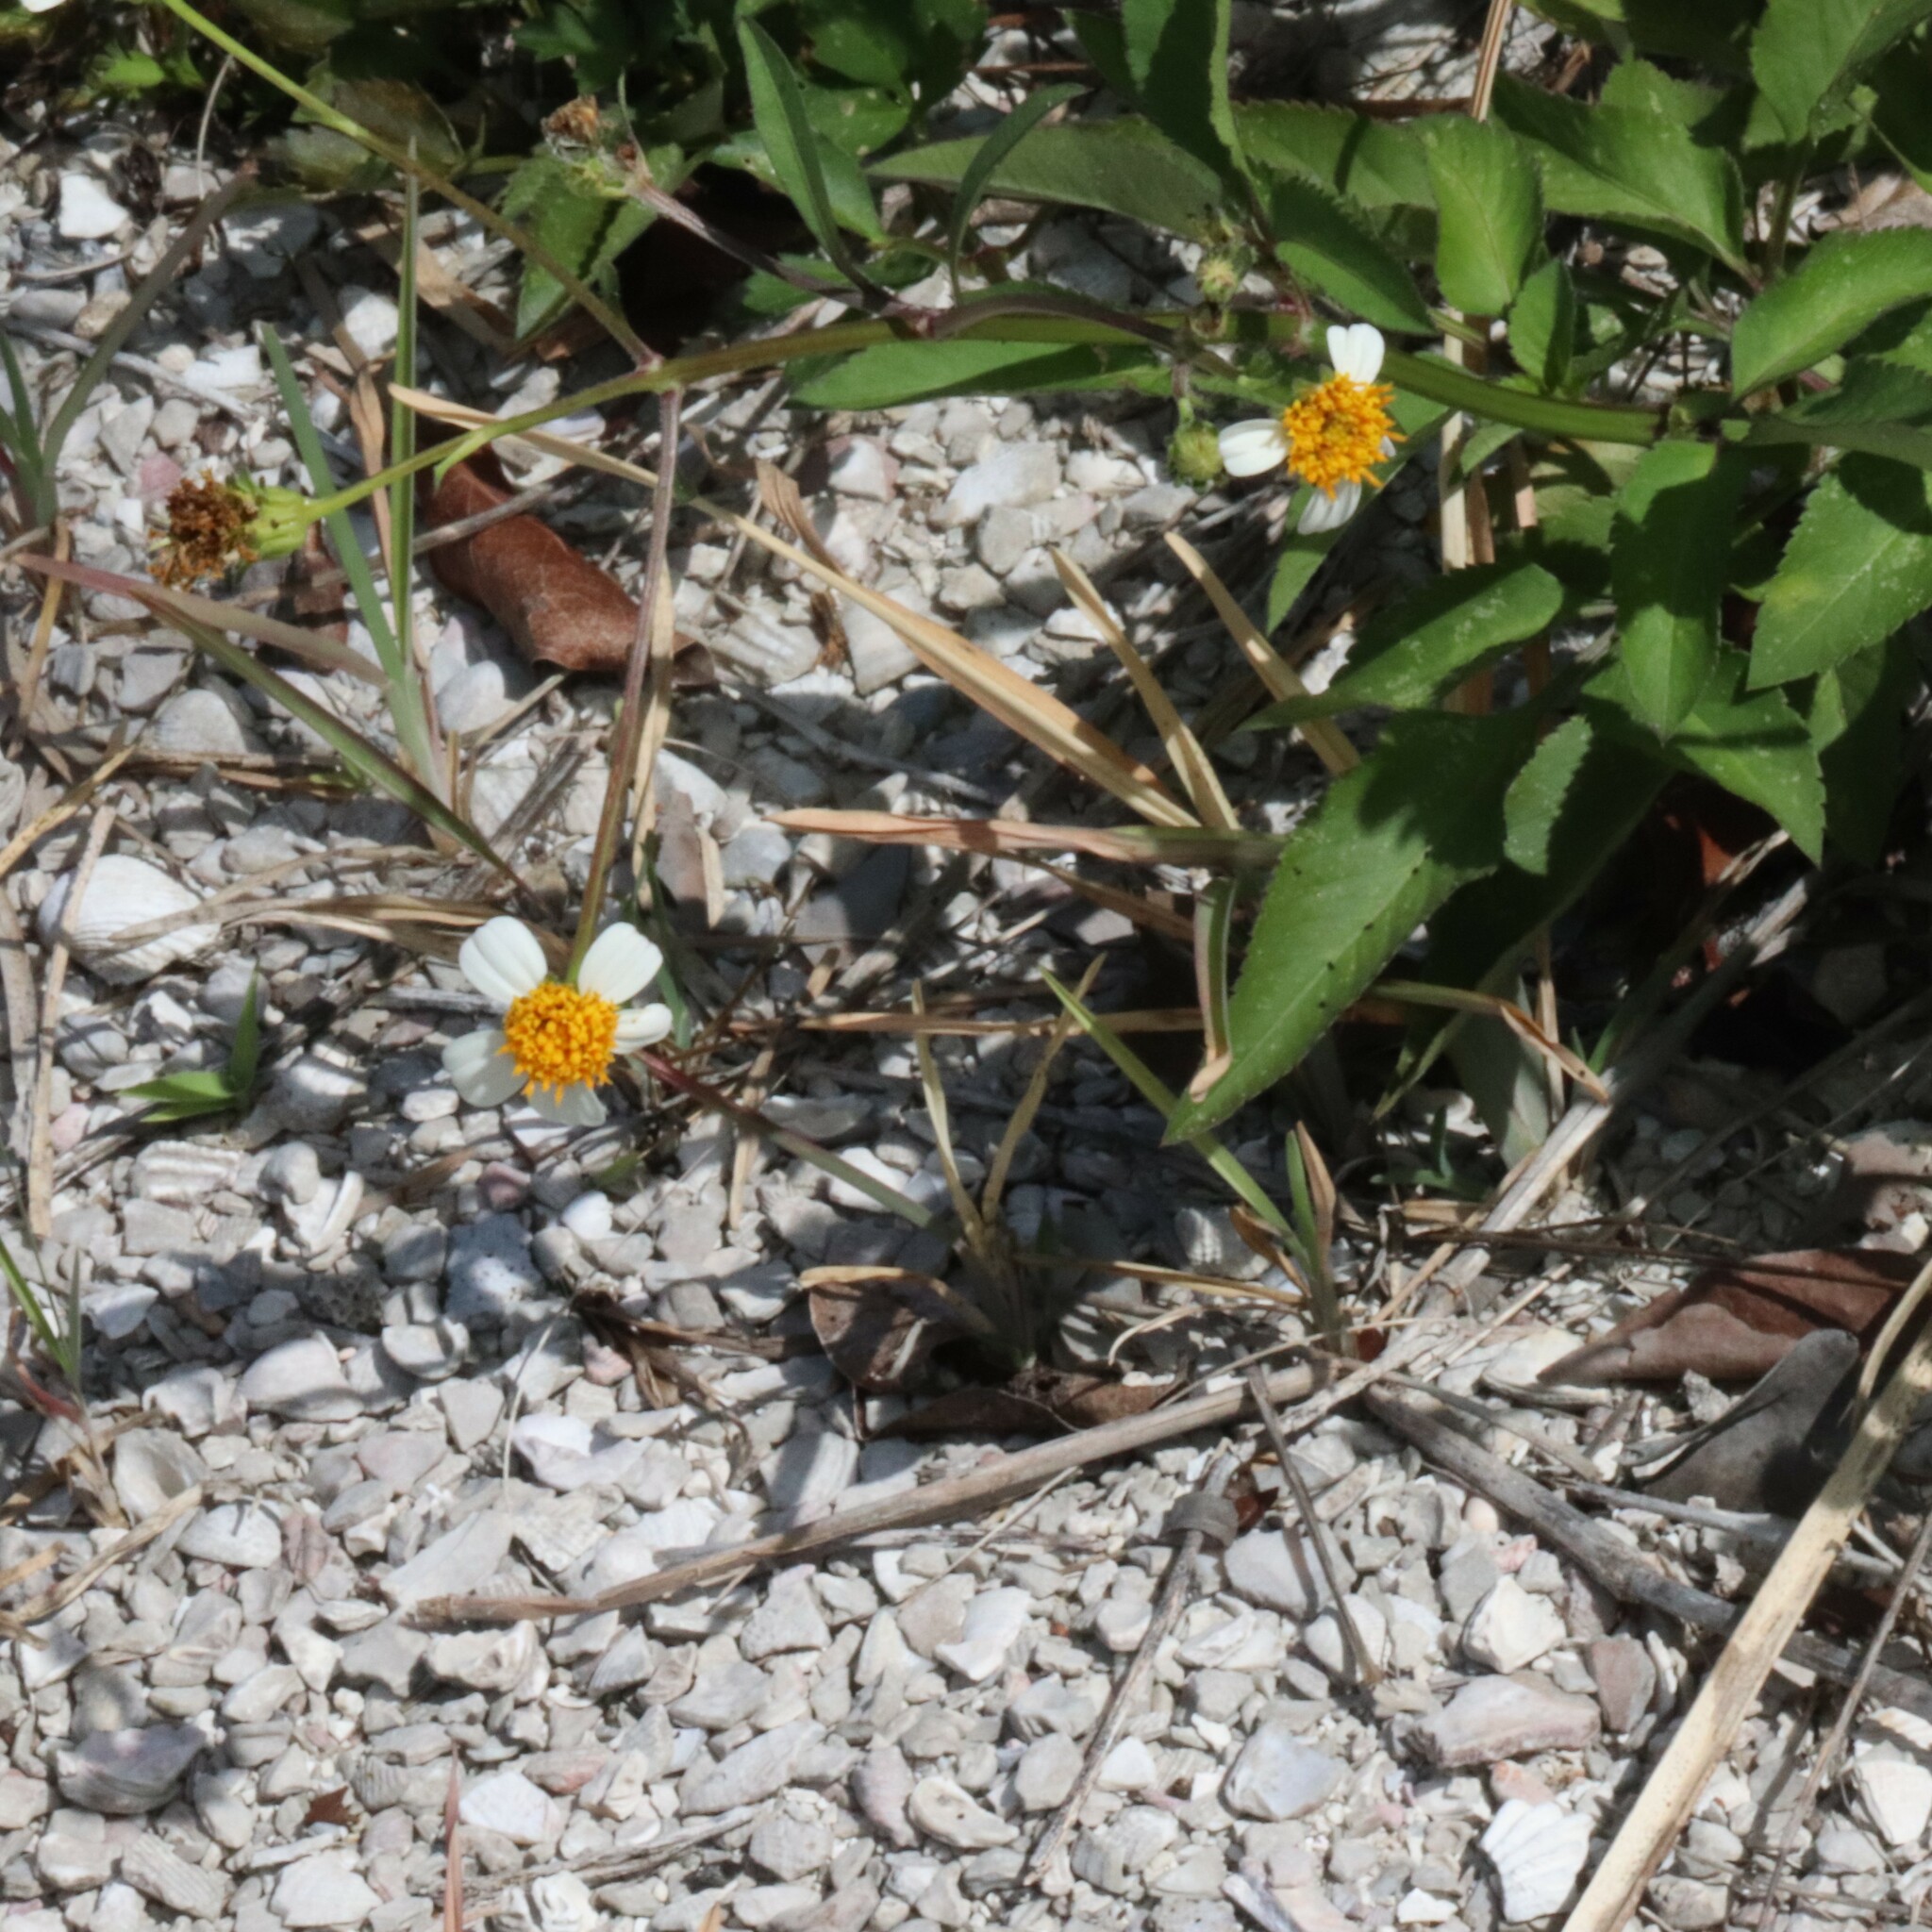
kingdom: Plantae
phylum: Tracheophyta
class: Magnoliopsida
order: Asterales
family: Asteraceae
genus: Bidens
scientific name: Bidens alba
